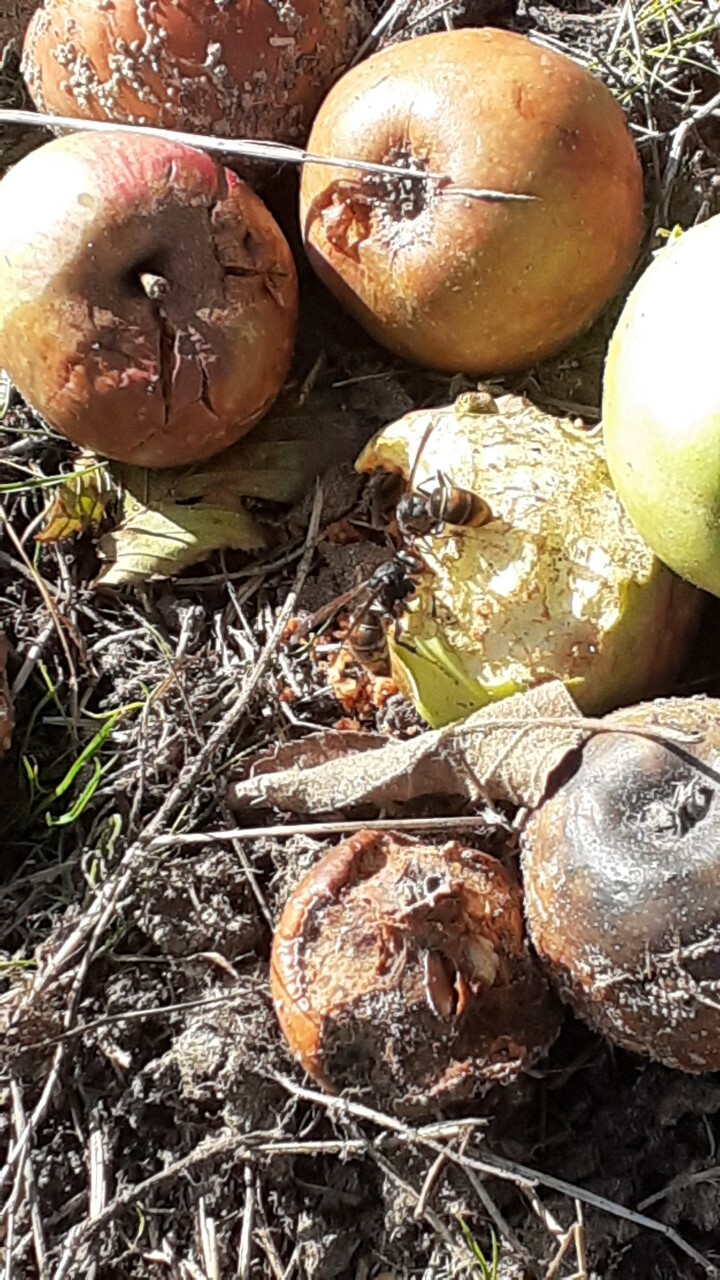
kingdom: Animalia
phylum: Arthropoda
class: Insecta
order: Hymenoptera
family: Vespidae
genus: Vespa
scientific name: Vespa velutina
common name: Asian hornet
